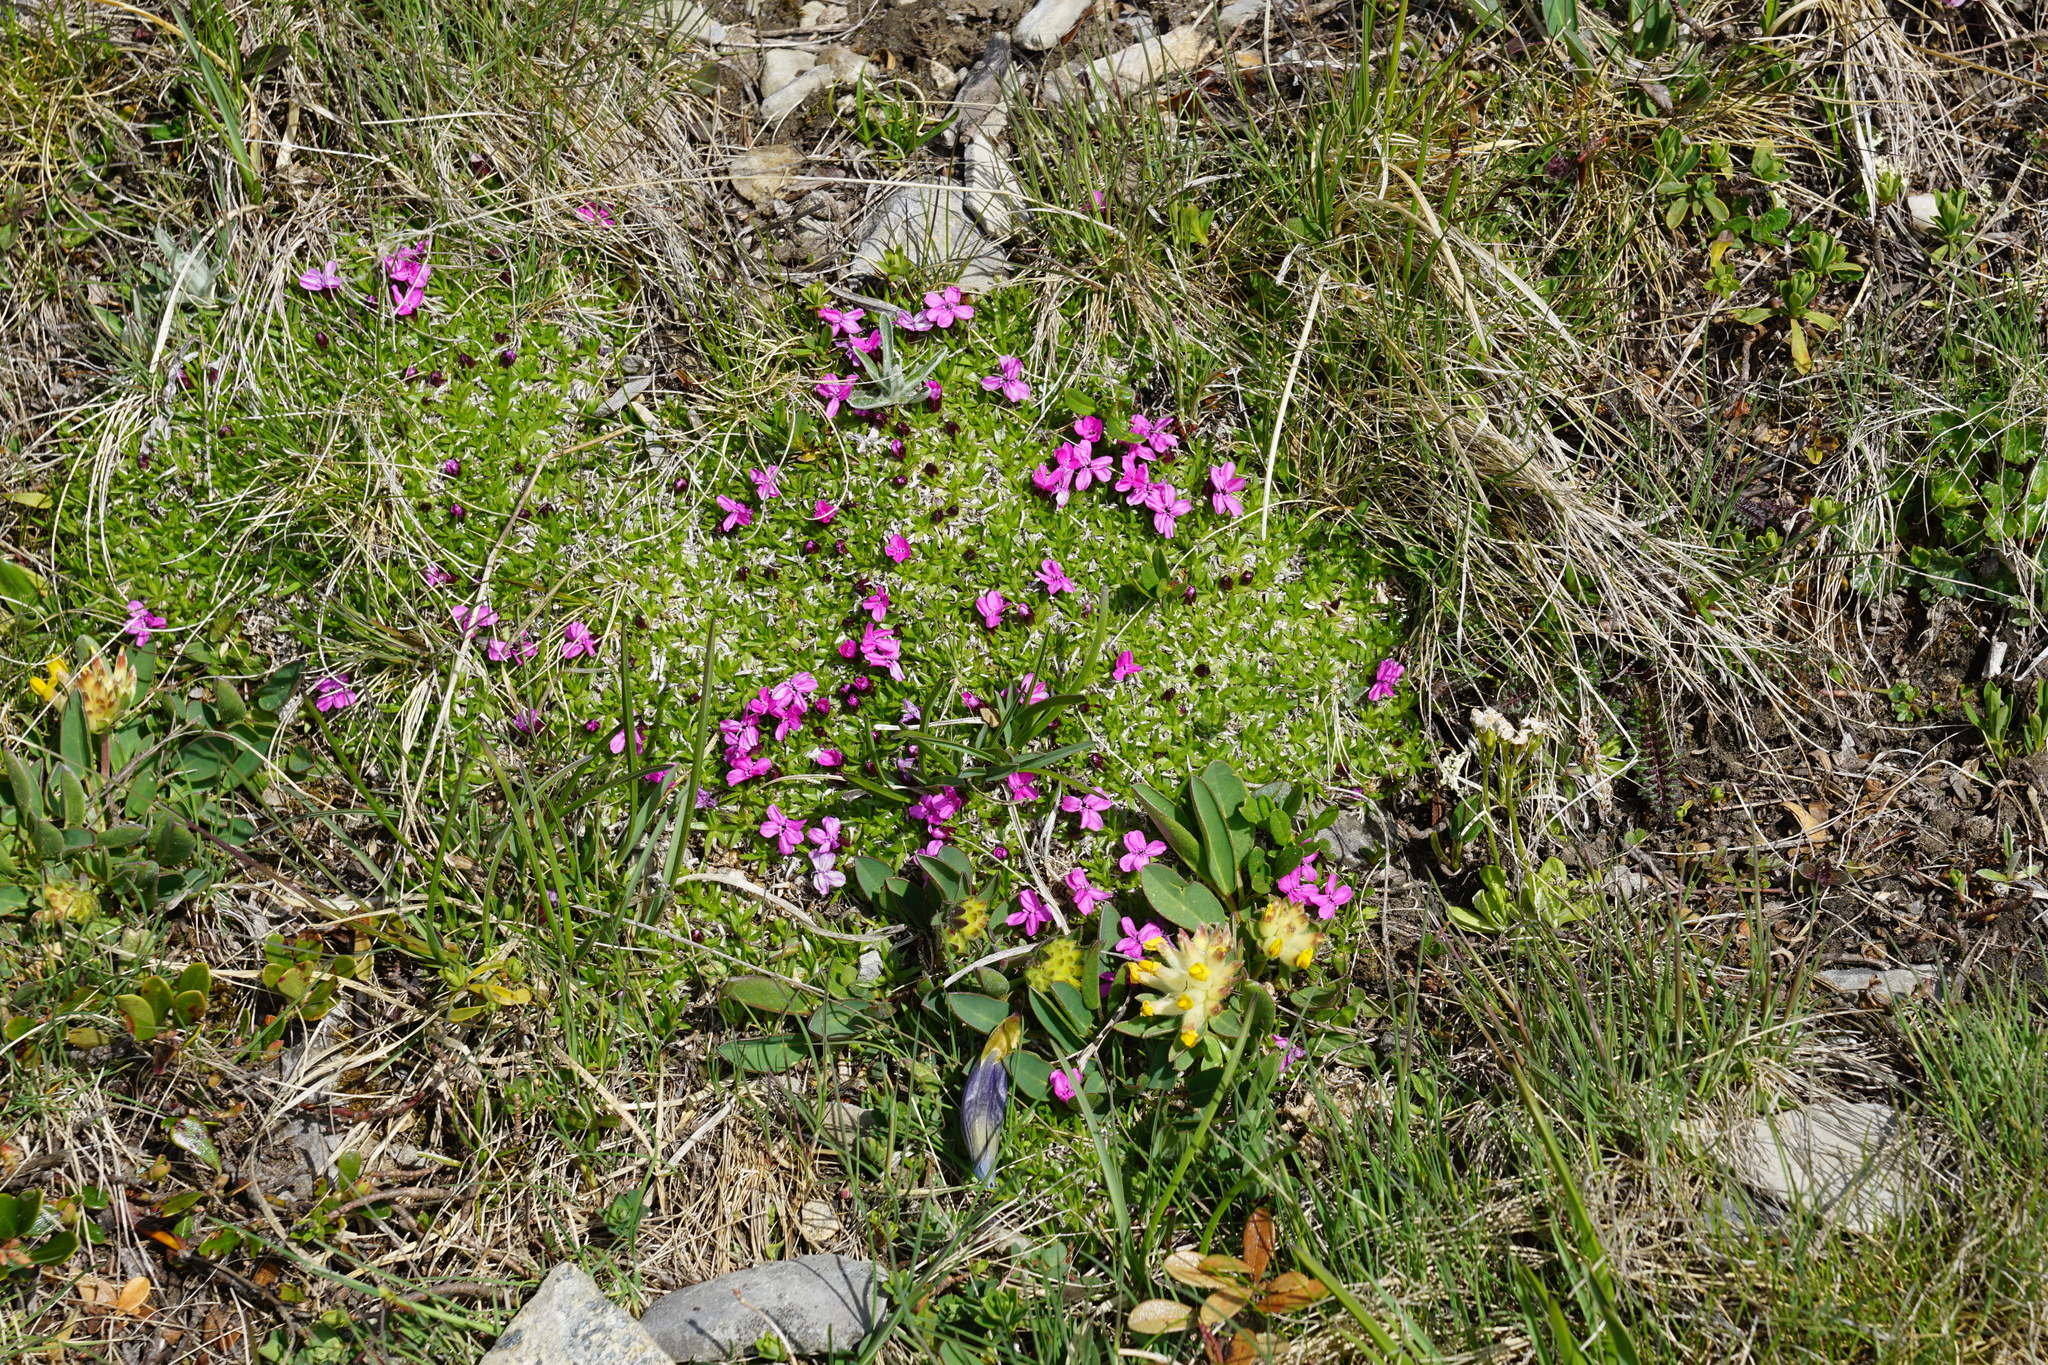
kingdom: Plantae
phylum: Tracheophyta
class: Magnoliopsida
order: Caryophyllales
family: Caryophyllaceae
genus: Silene
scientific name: Silene acaulis
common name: Moss campion
